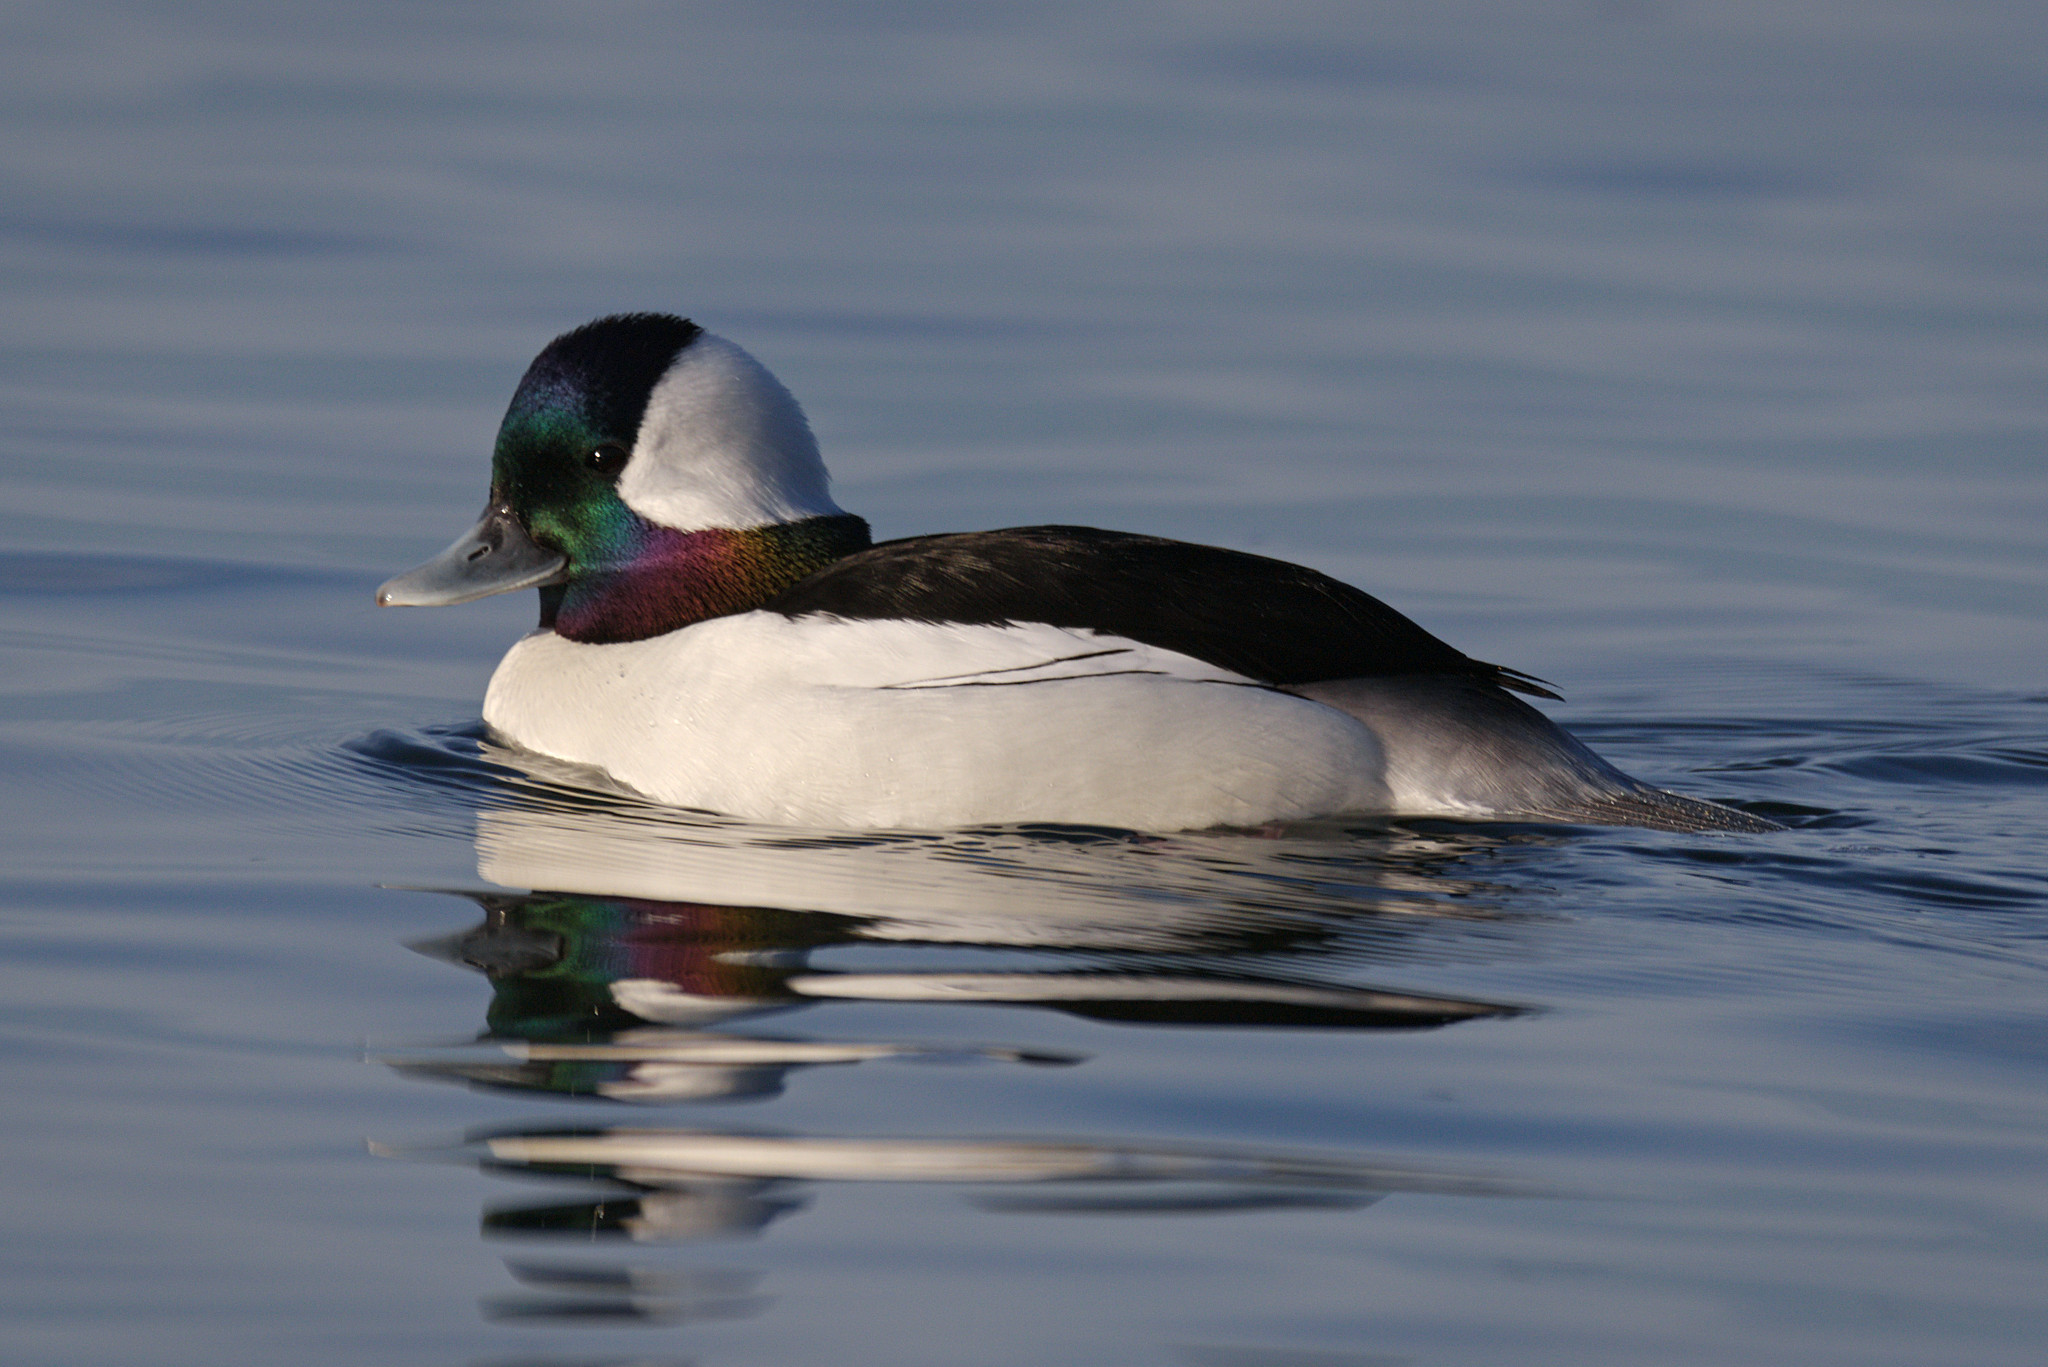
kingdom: Animalia
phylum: Chordata
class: Aves
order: Anseriformes
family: Anatidae
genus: Bucephala
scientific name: Bucephala albeola
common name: Bufflehead
